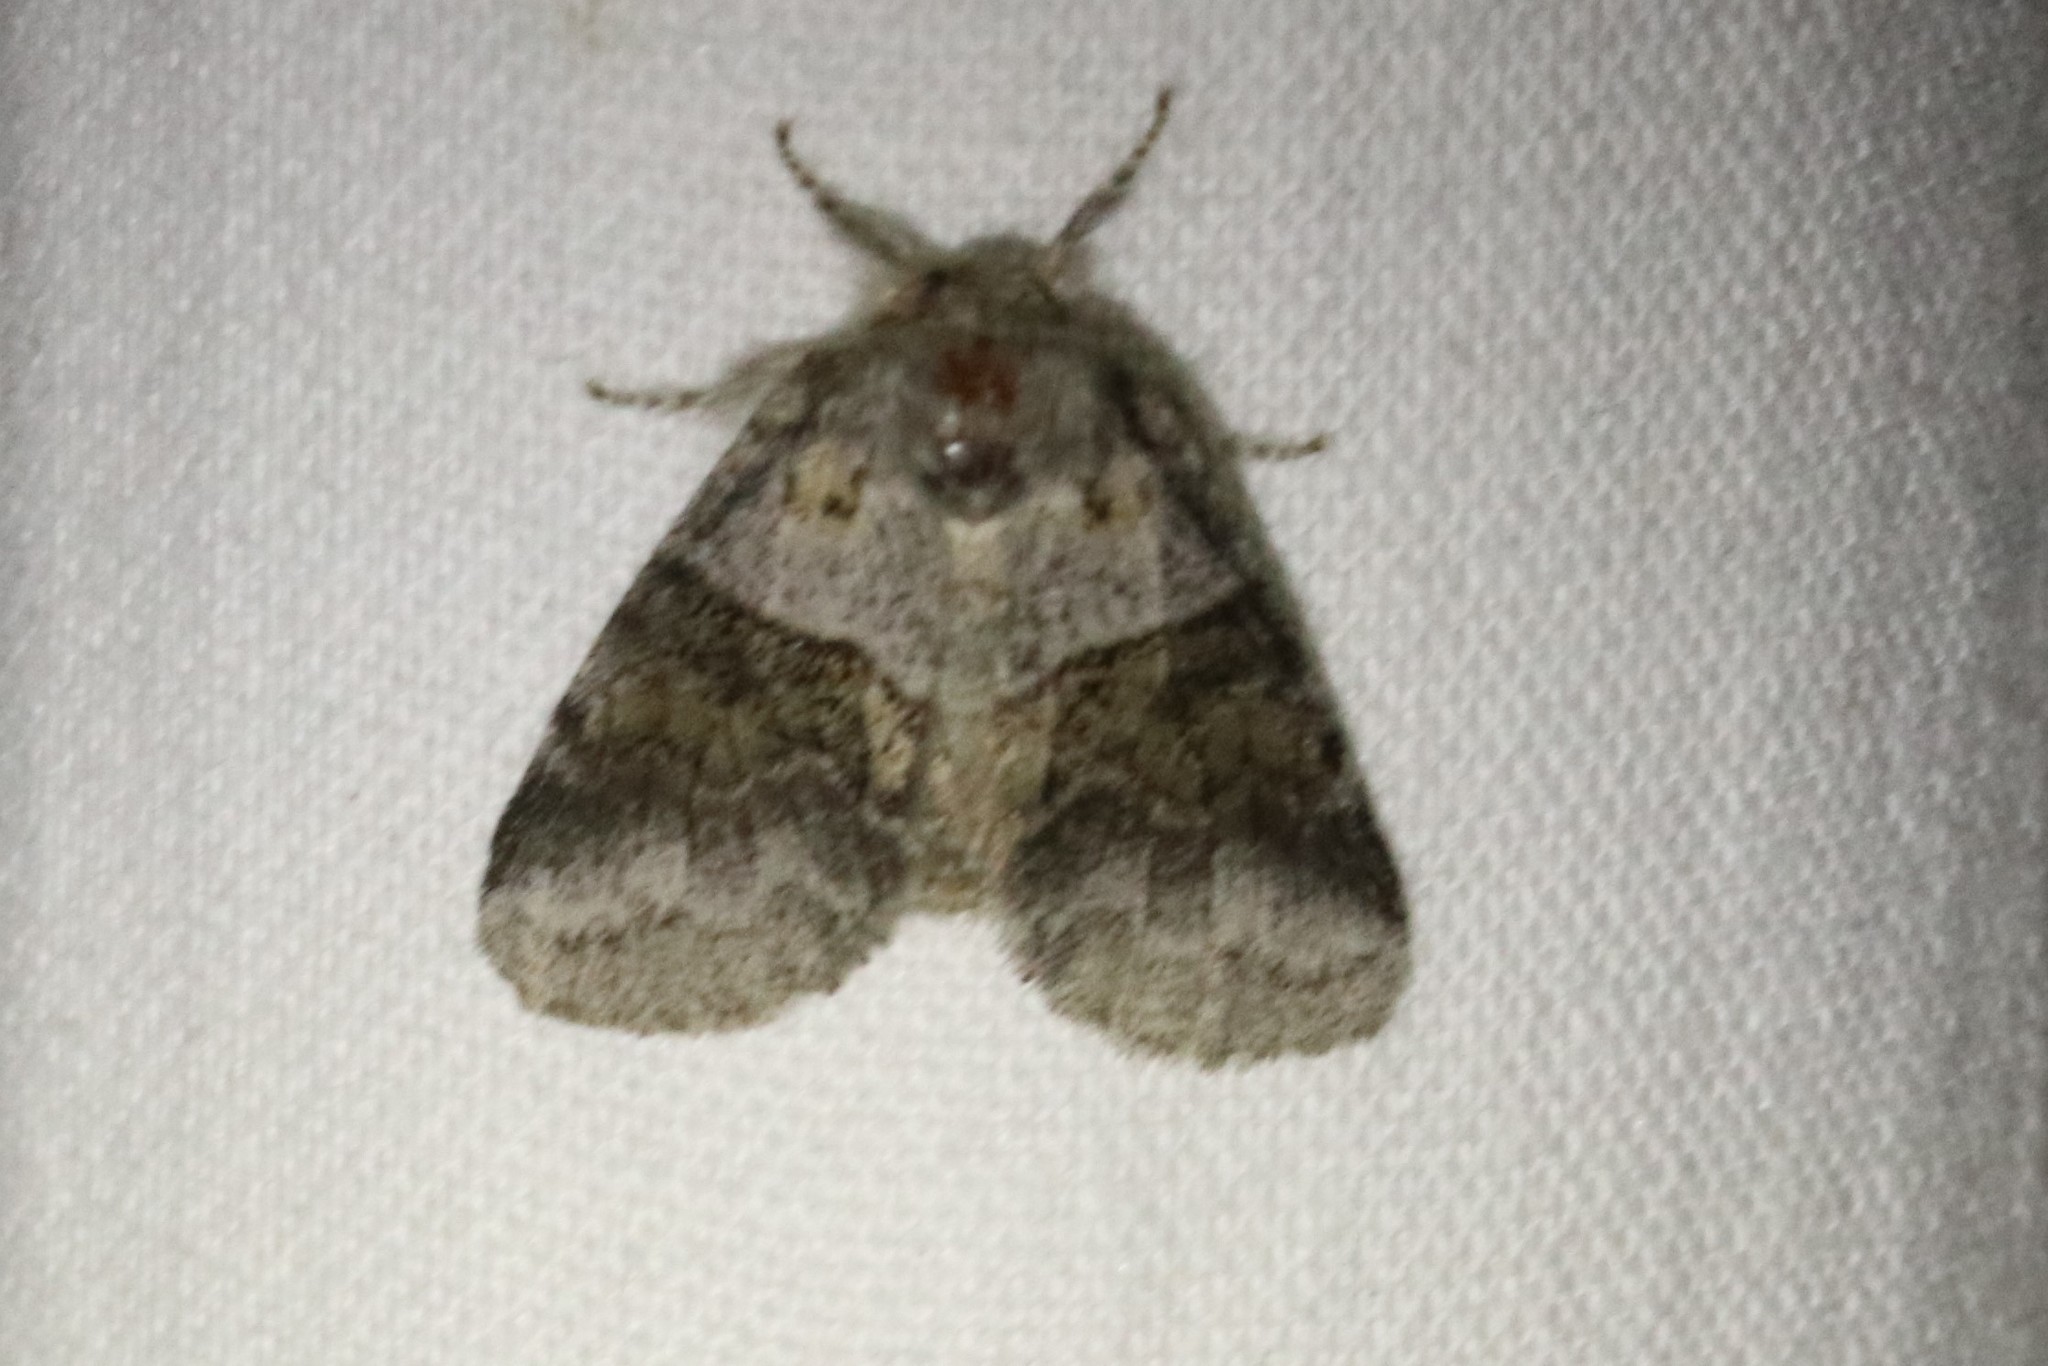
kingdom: Animalia
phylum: Arthropoda
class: Insecta
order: Lepidoptera
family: Notodontidae
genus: Gluphisia
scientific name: Gluphisia septentrionis
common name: Common gluphisia
